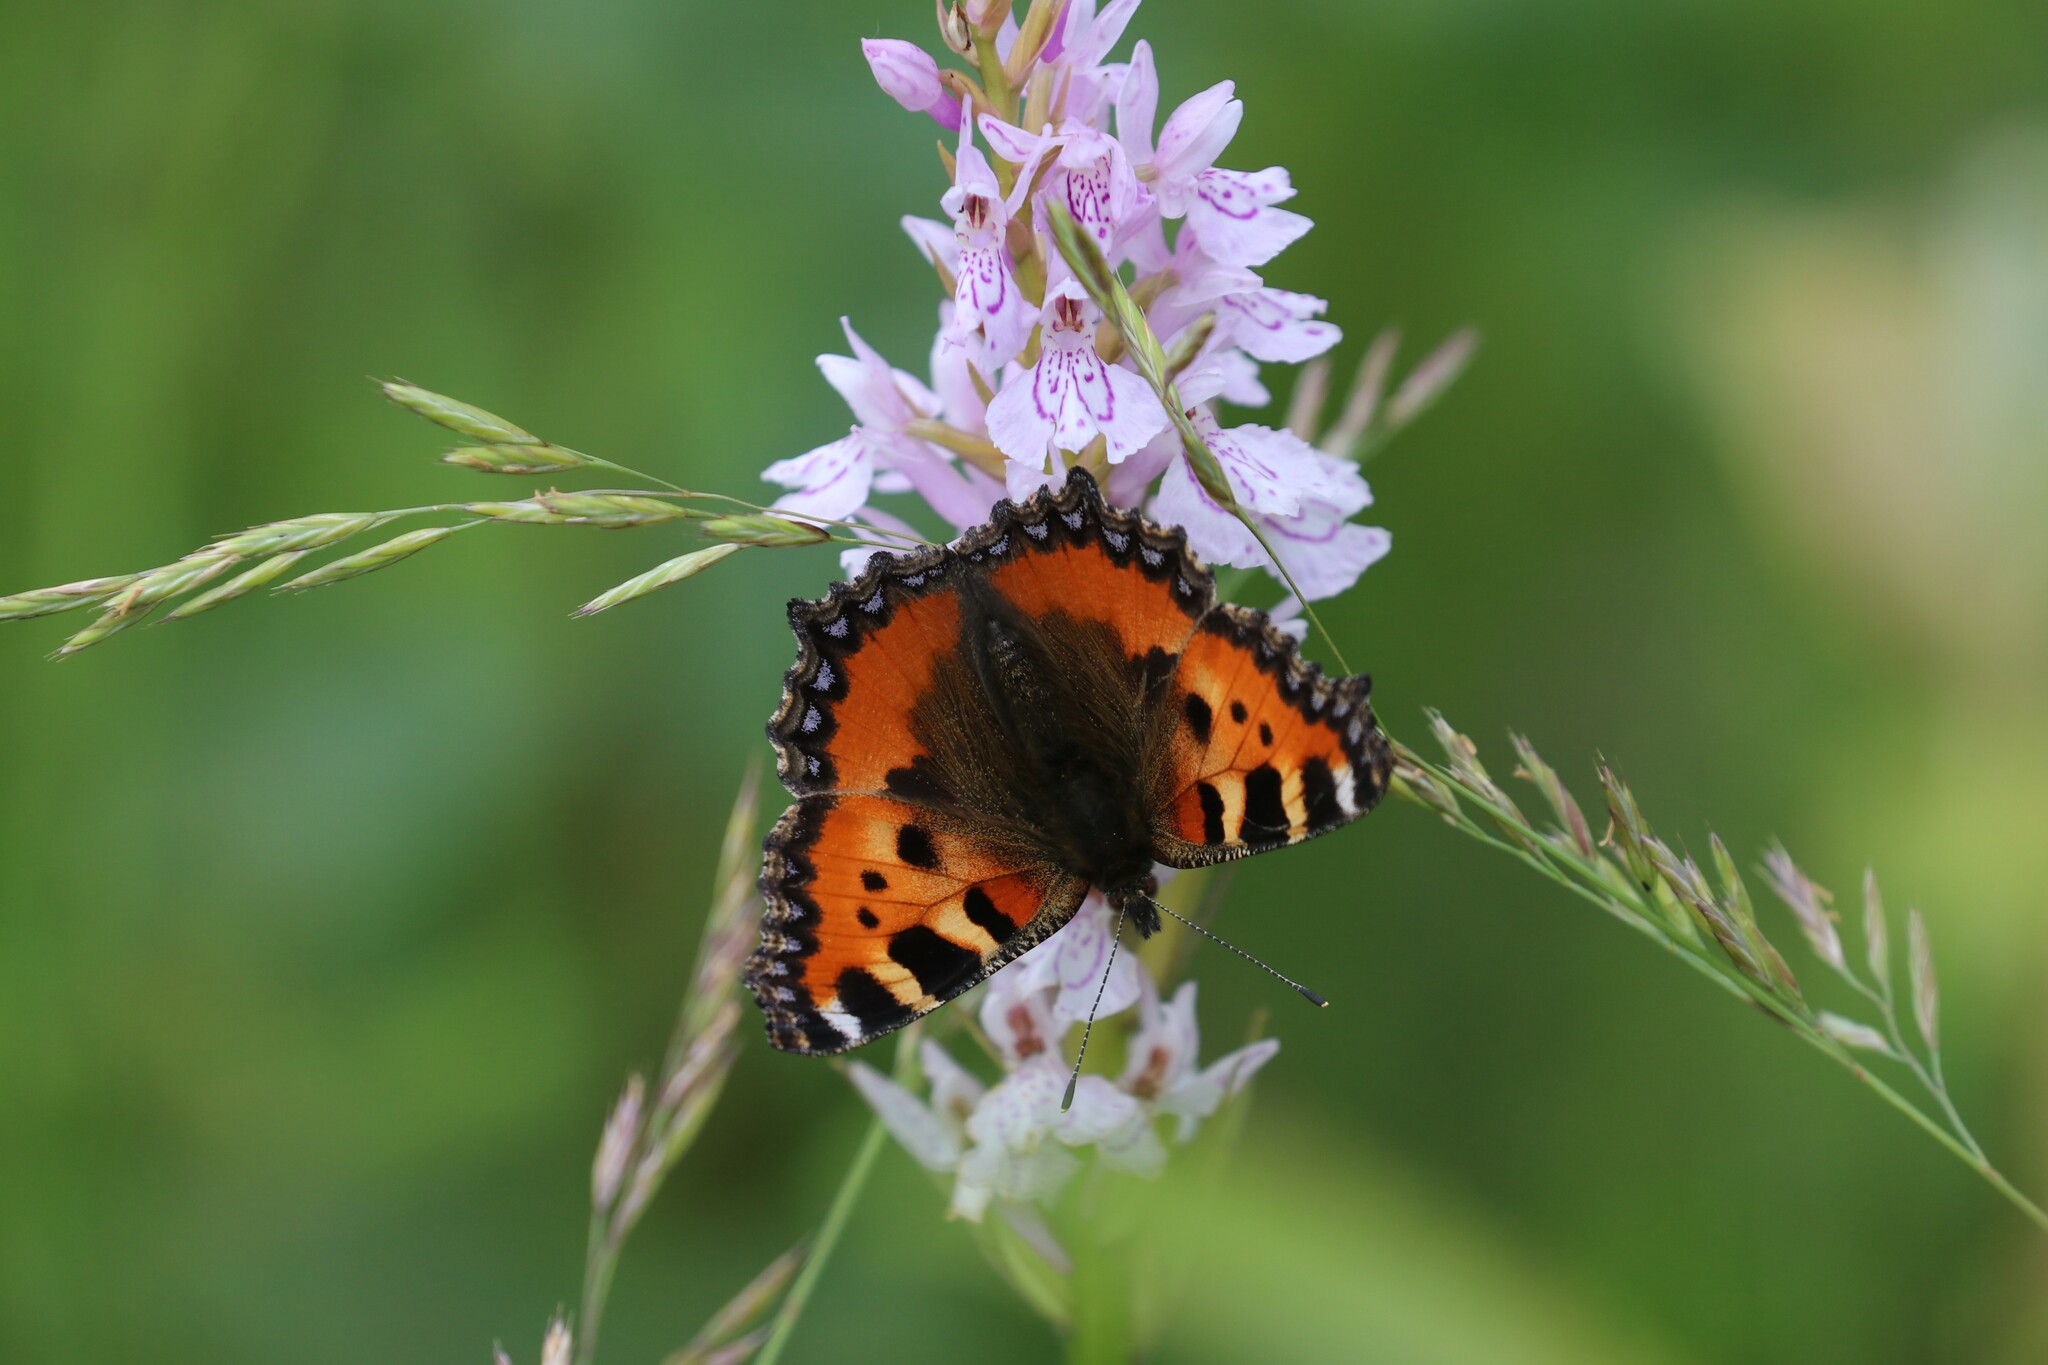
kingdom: Animalia
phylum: Arthropoda
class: Insecta
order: Lepidoptera
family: Nymphalidae
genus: Aglais
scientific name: Aglais urticae
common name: Small tortoiseshell
